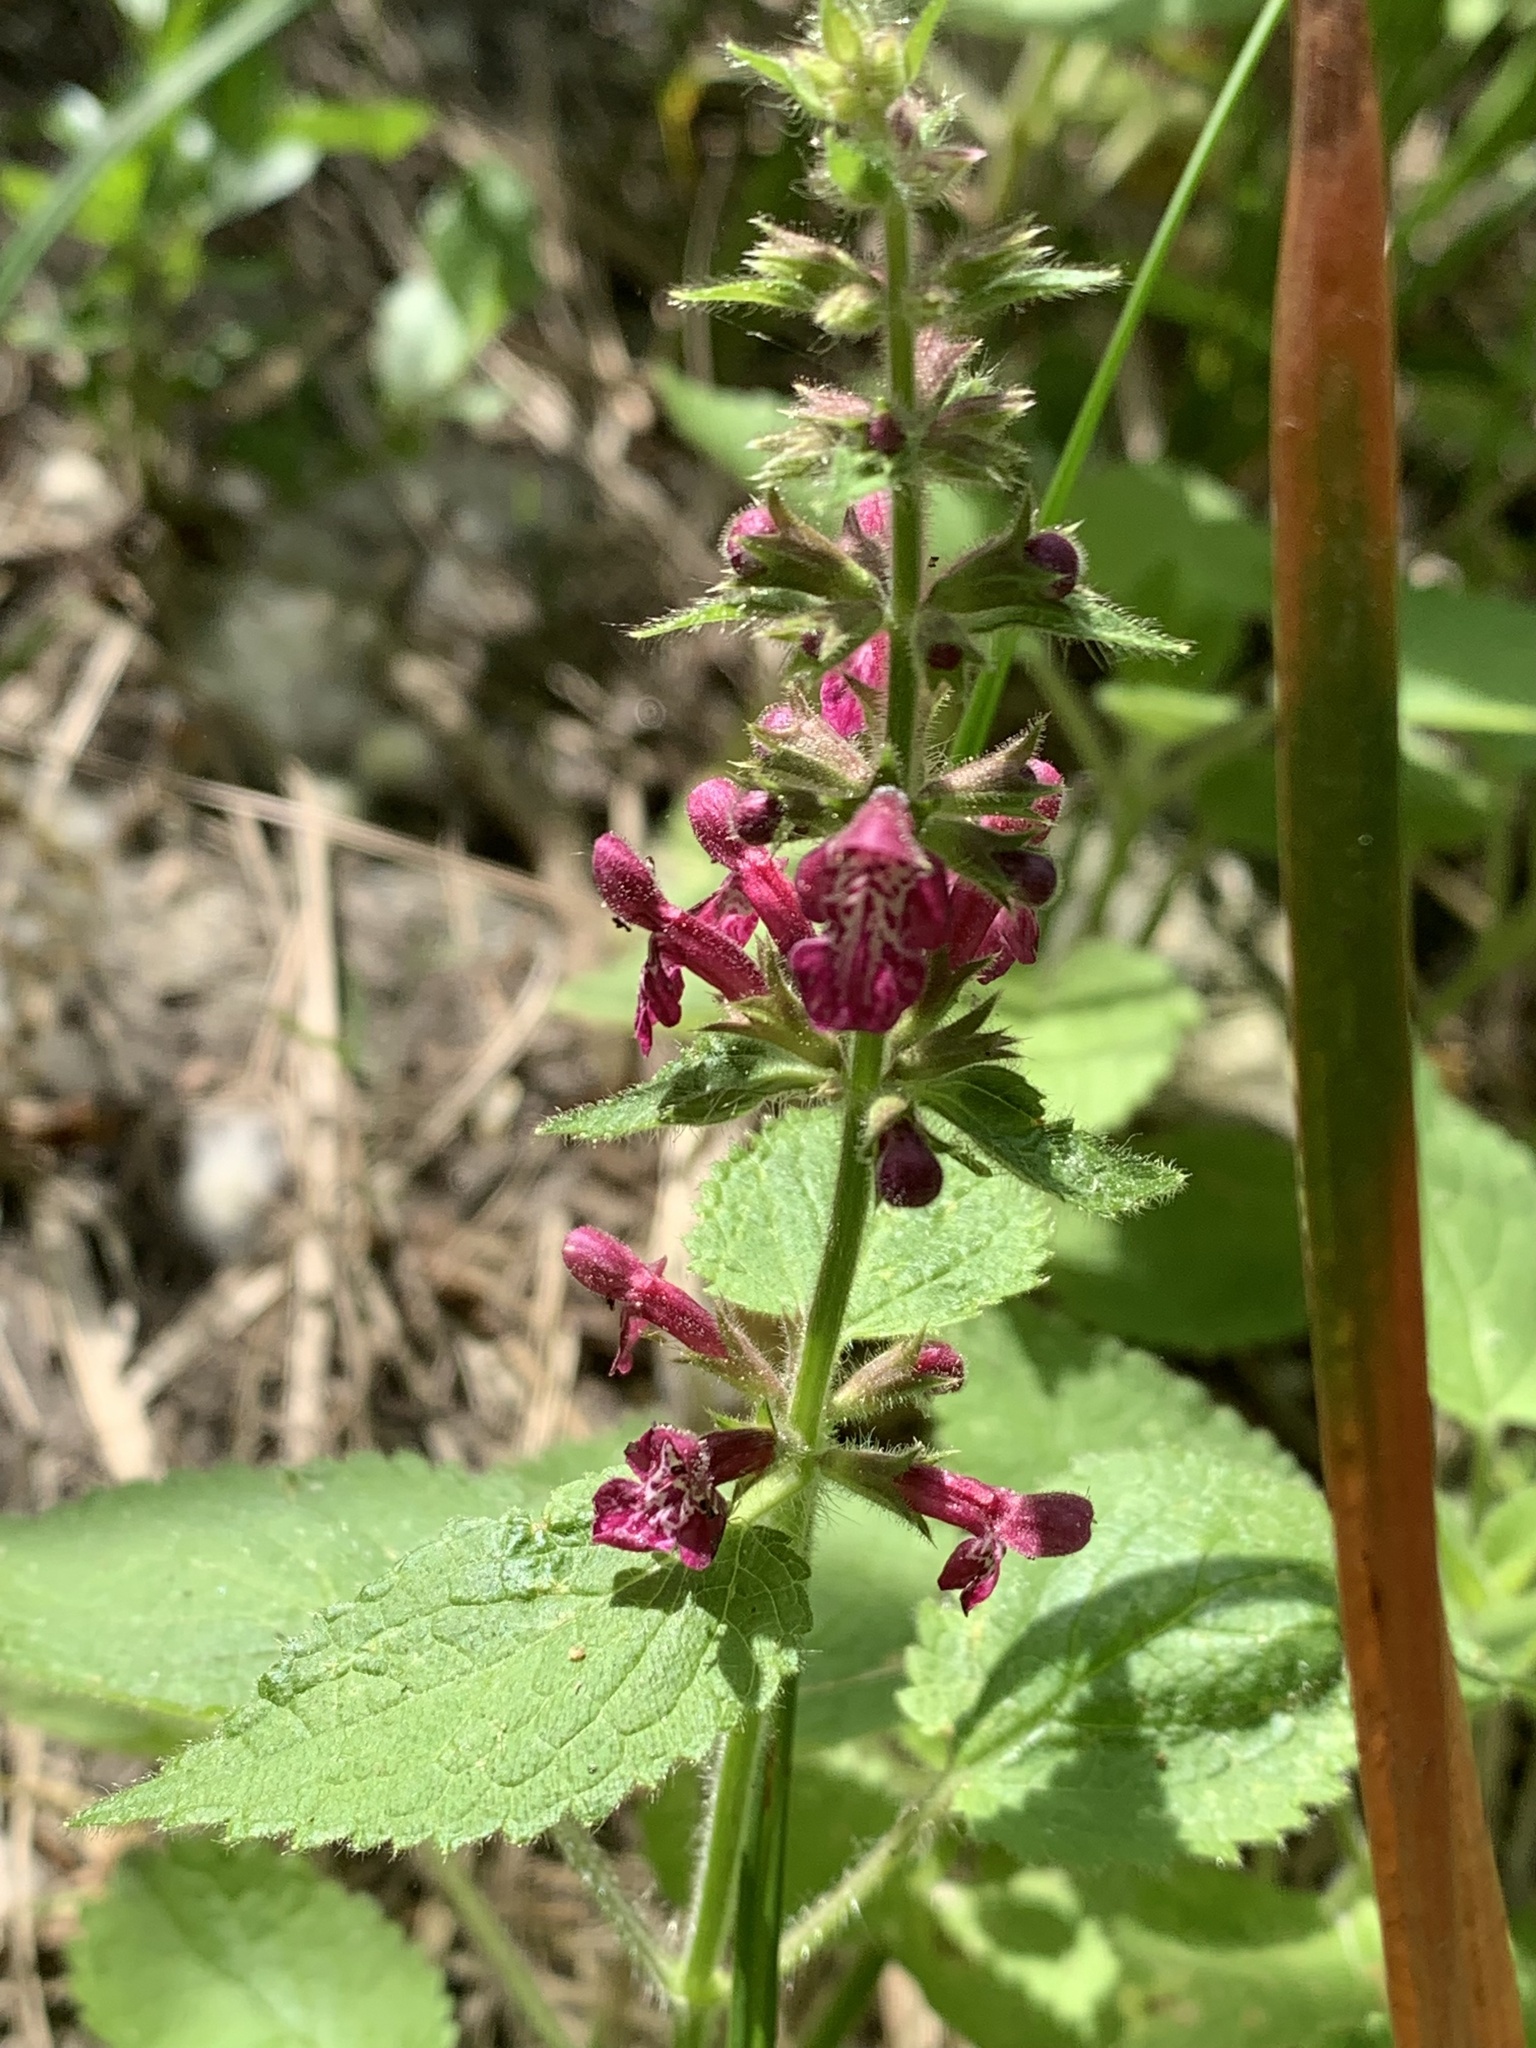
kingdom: Plantae
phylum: Tracheophyta
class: Magnoliopsida
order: Lamiales
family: Lamiaceae
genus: Stachys
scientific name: Stachys sylvatica
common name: Hedge woundwort
